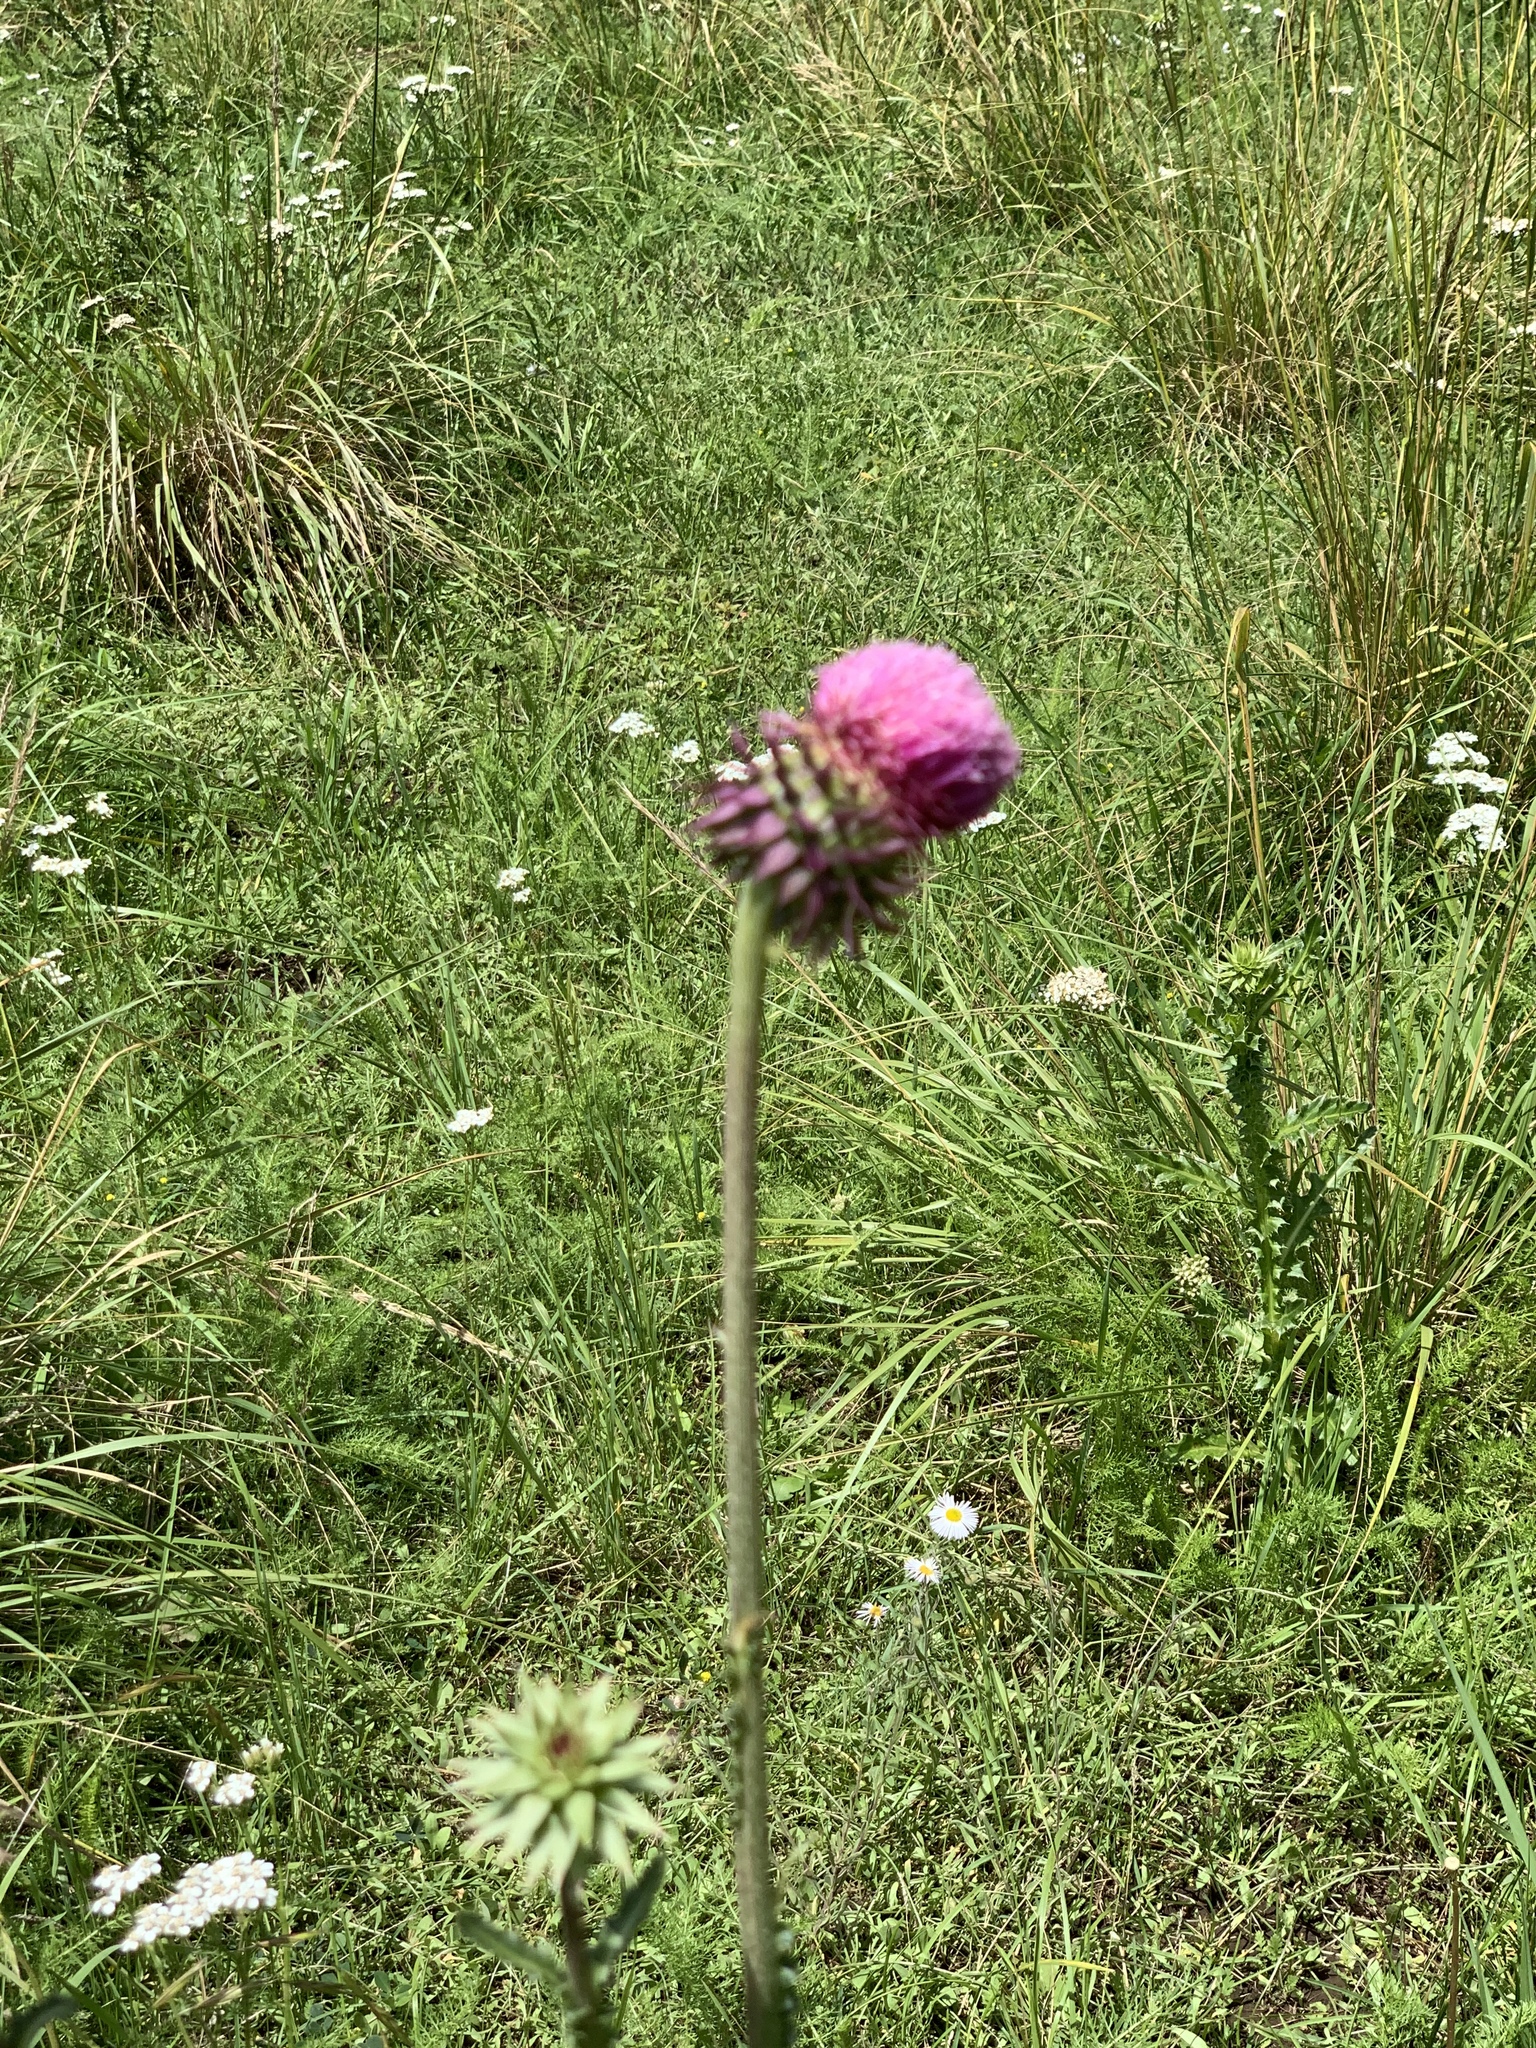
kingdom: Plantae
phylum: Tracheophyta
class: Magnoliopsida
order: Asterales
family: Asteraceae
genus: Carduus
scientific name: Carduus nutans
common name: Musk thistle
